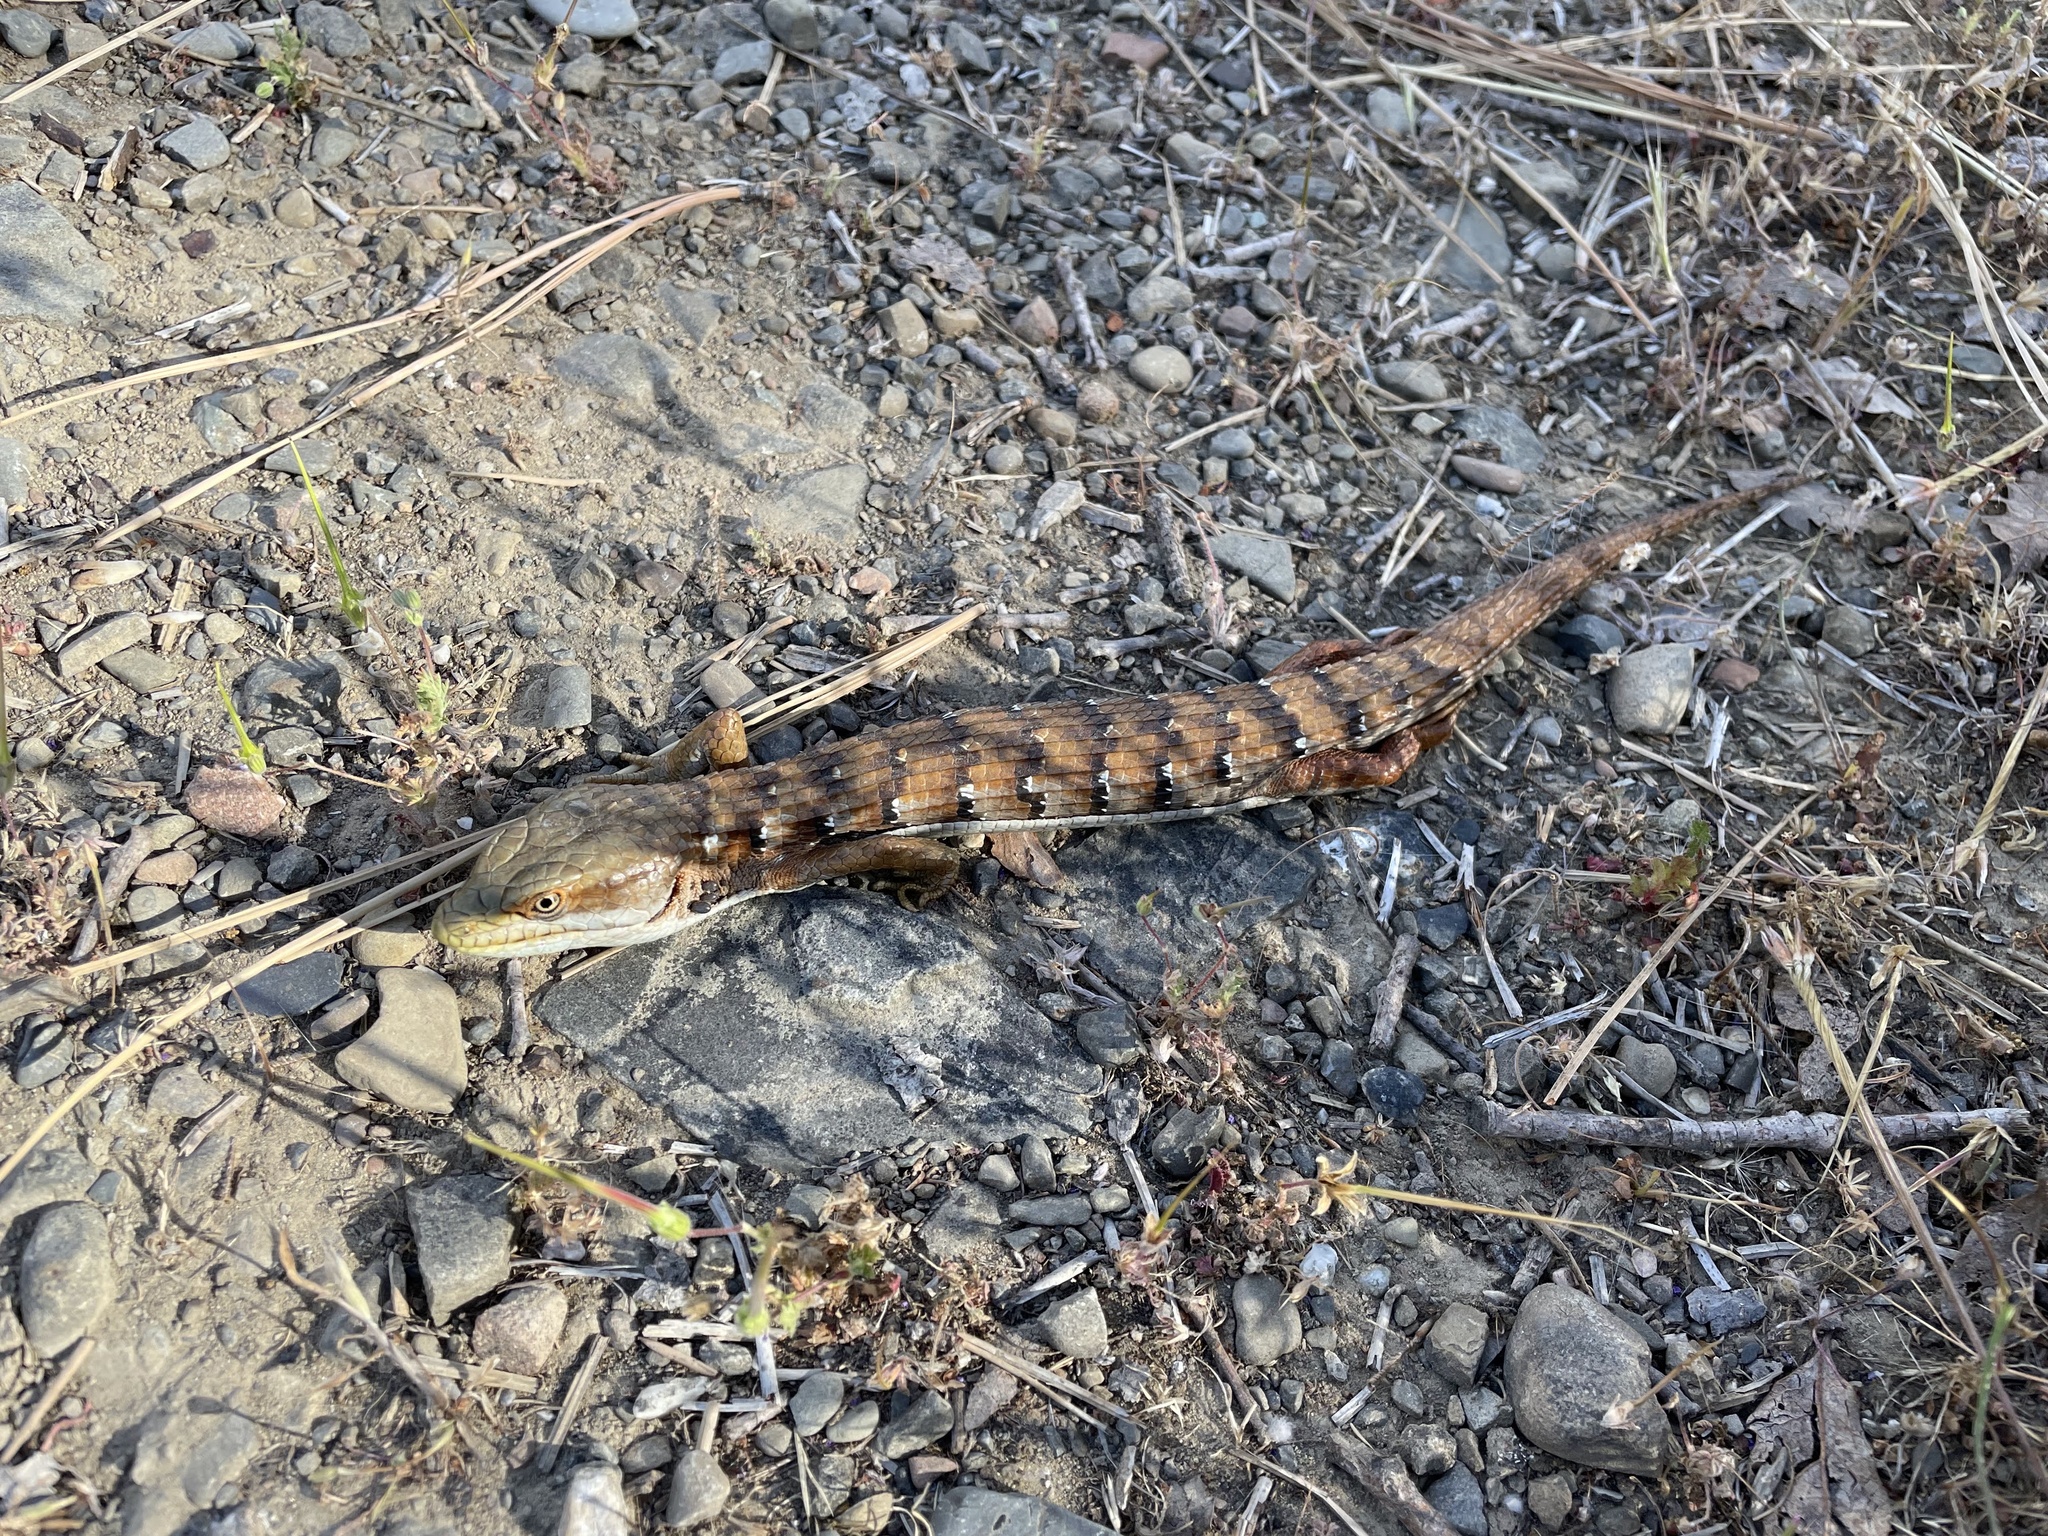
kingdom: Animalia
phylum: Chordata
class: Squamata
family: Anguidae
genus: Elgaria
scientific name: Elgaria multicarinata
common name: Southern alligator lizard
